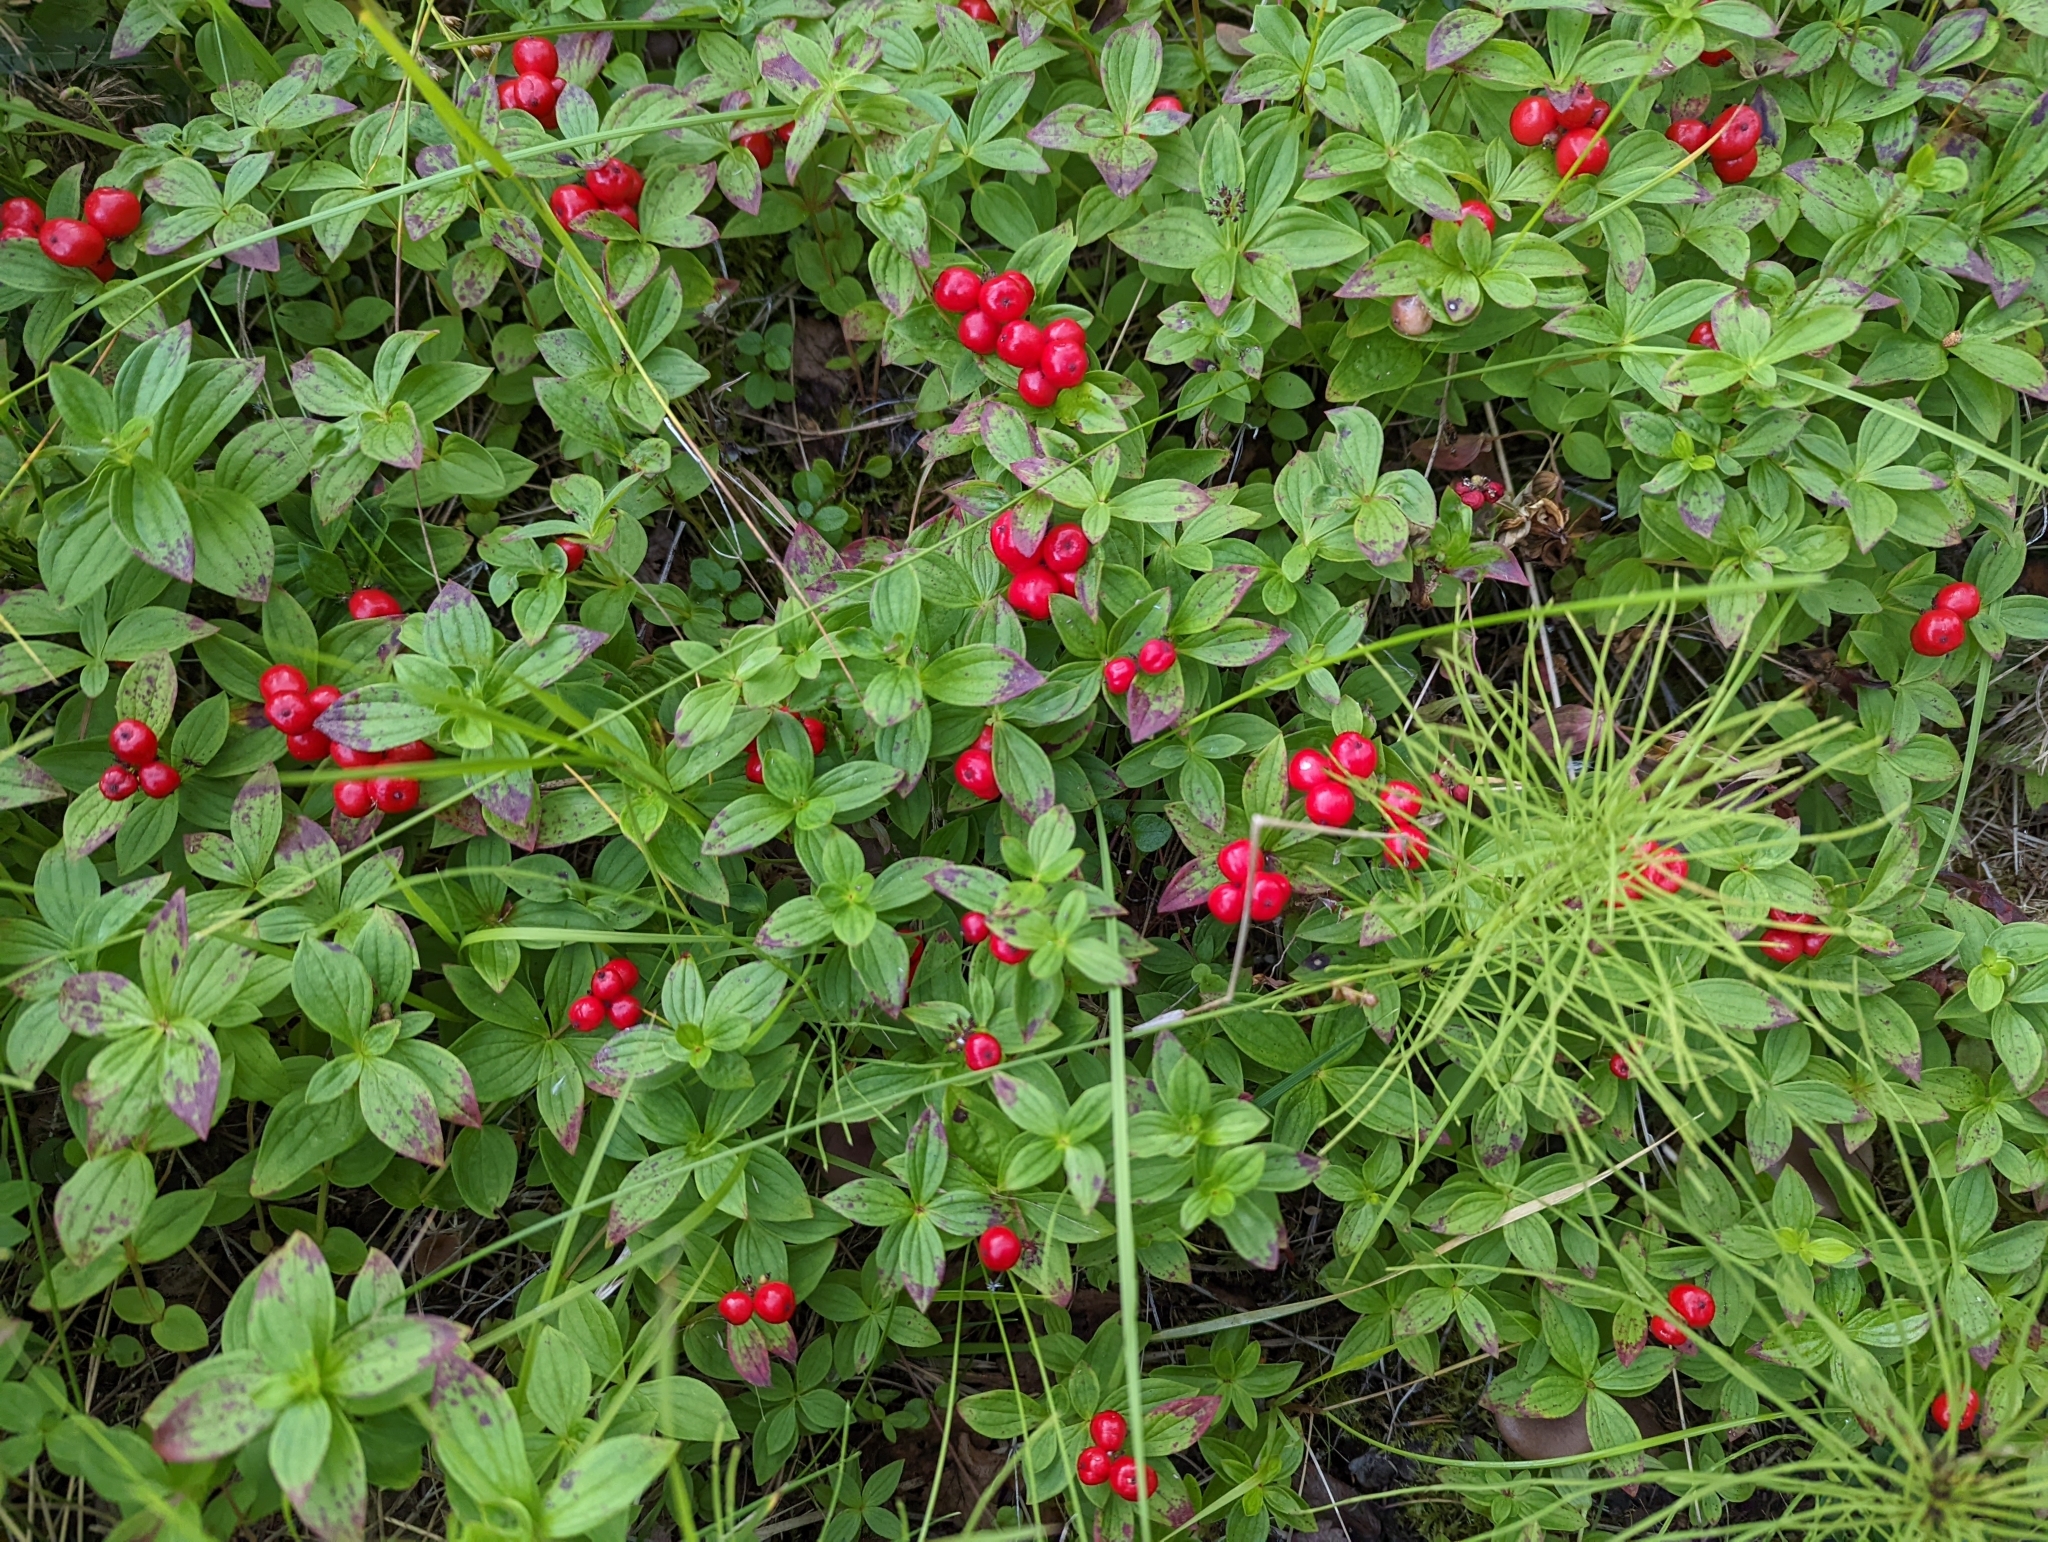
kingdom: Plantae
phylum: Tracheophyta
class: Magnoliopsida
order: Cornales
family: Cornaceae
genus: Cornus
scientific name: Cornus suecica
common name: Dwarf cornel
